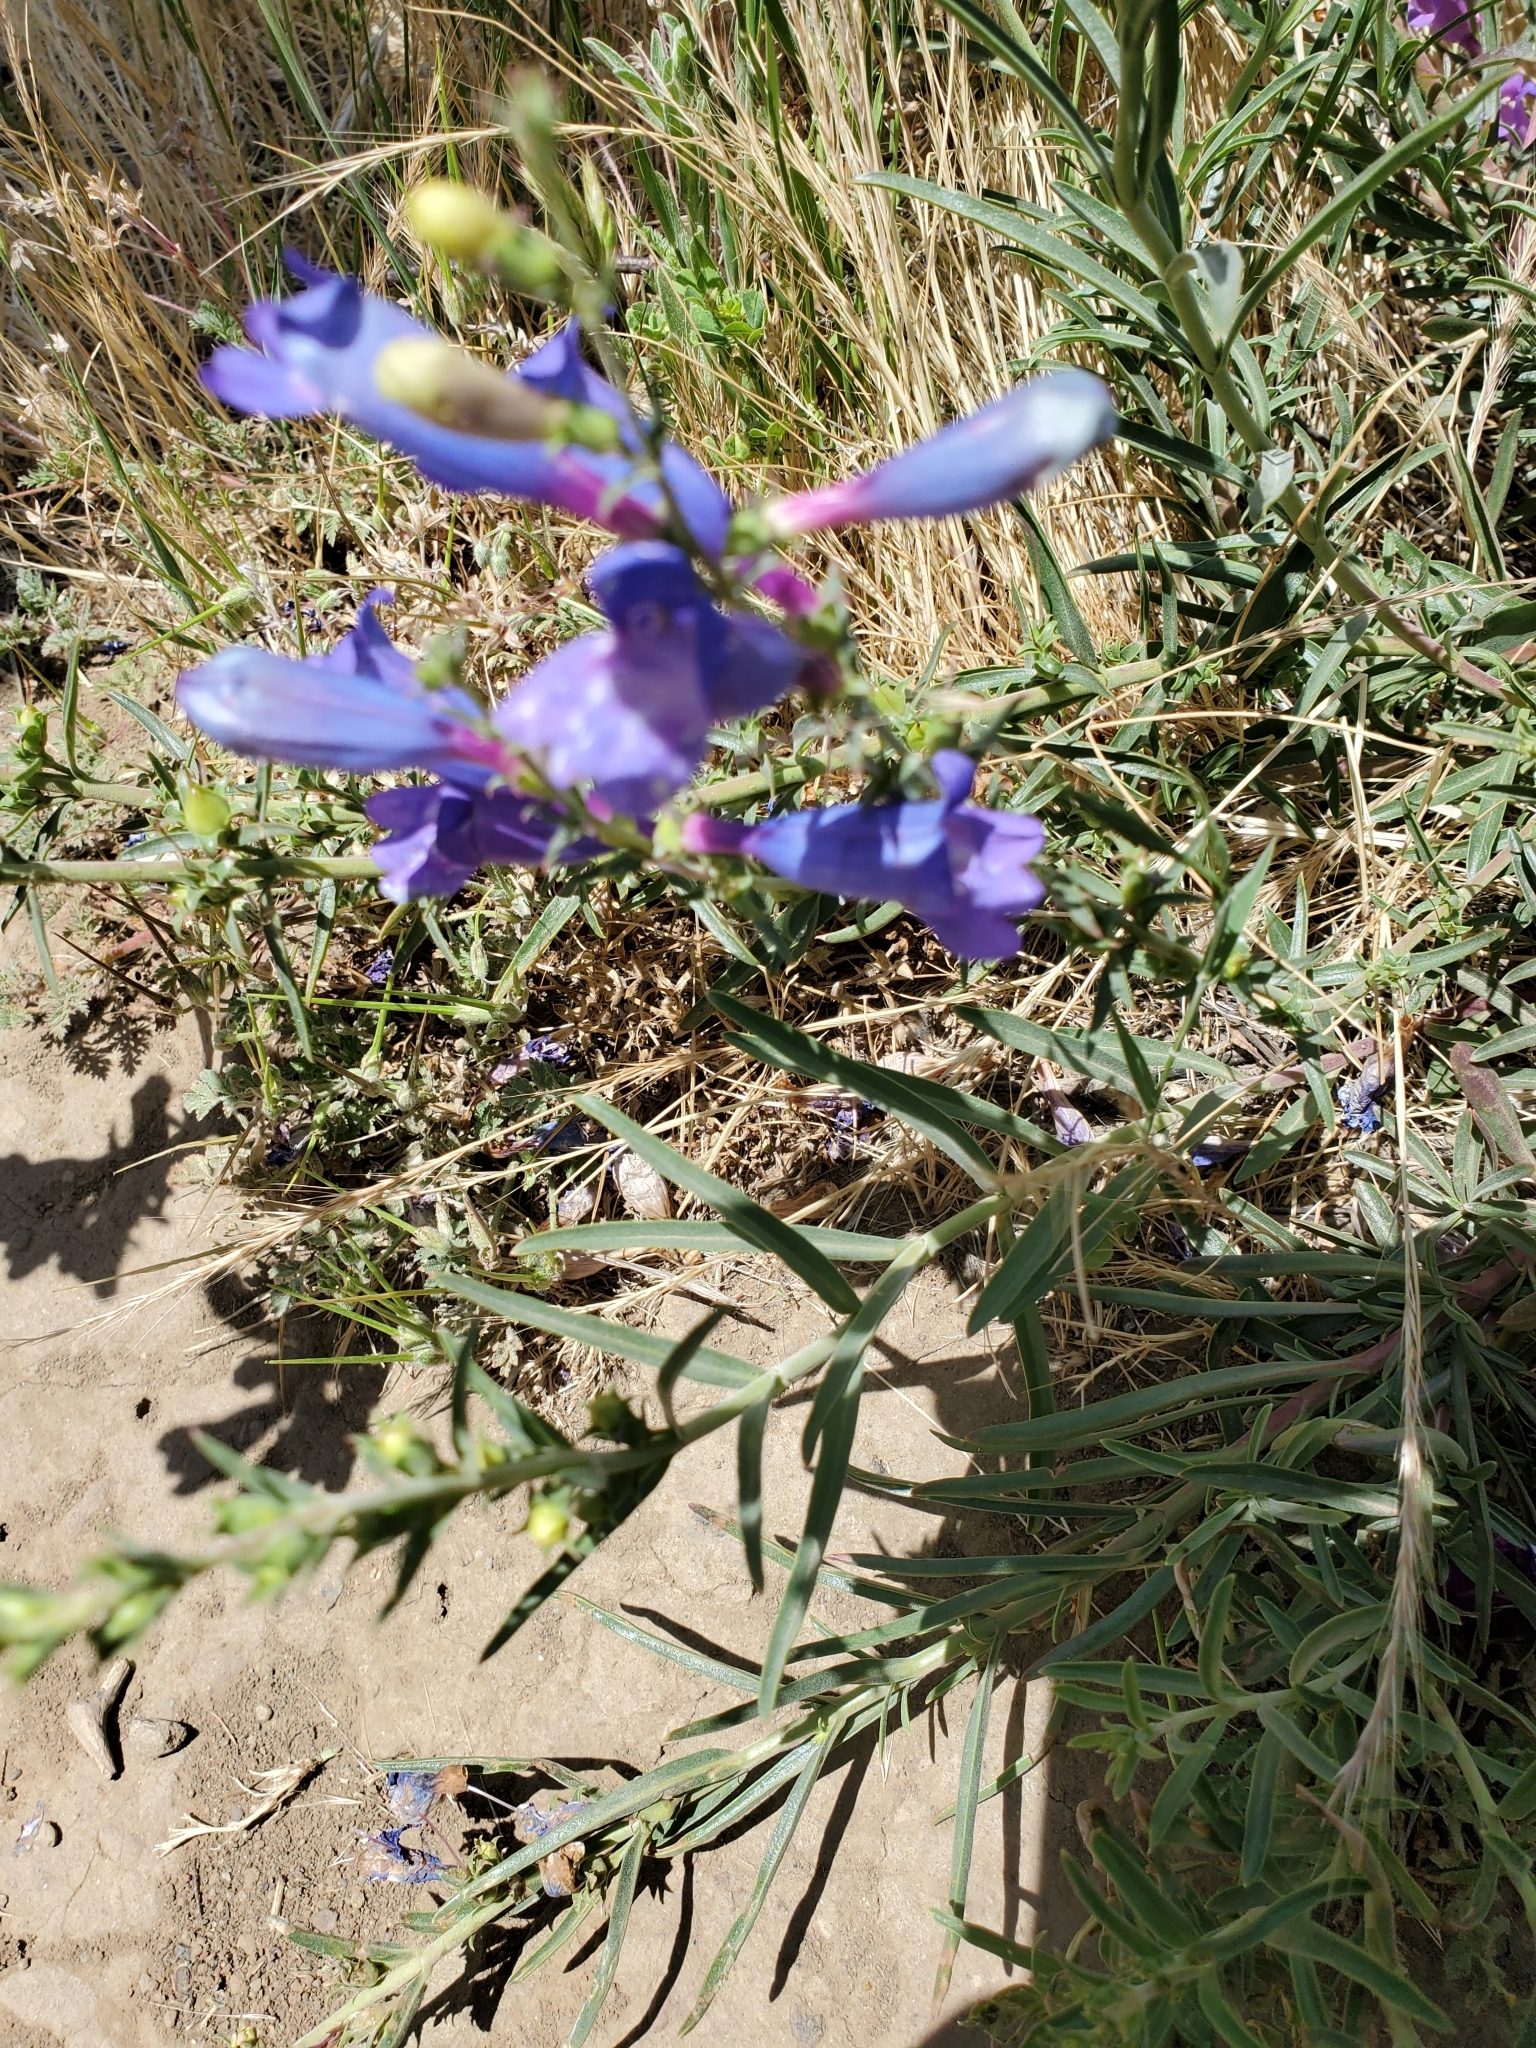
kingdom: Plantae
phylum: Tracheophyta
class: Magnoliopsida
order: Lamiales
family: Plantaginaceae
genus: Penstemon
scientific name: Penstemon heterophyllus
